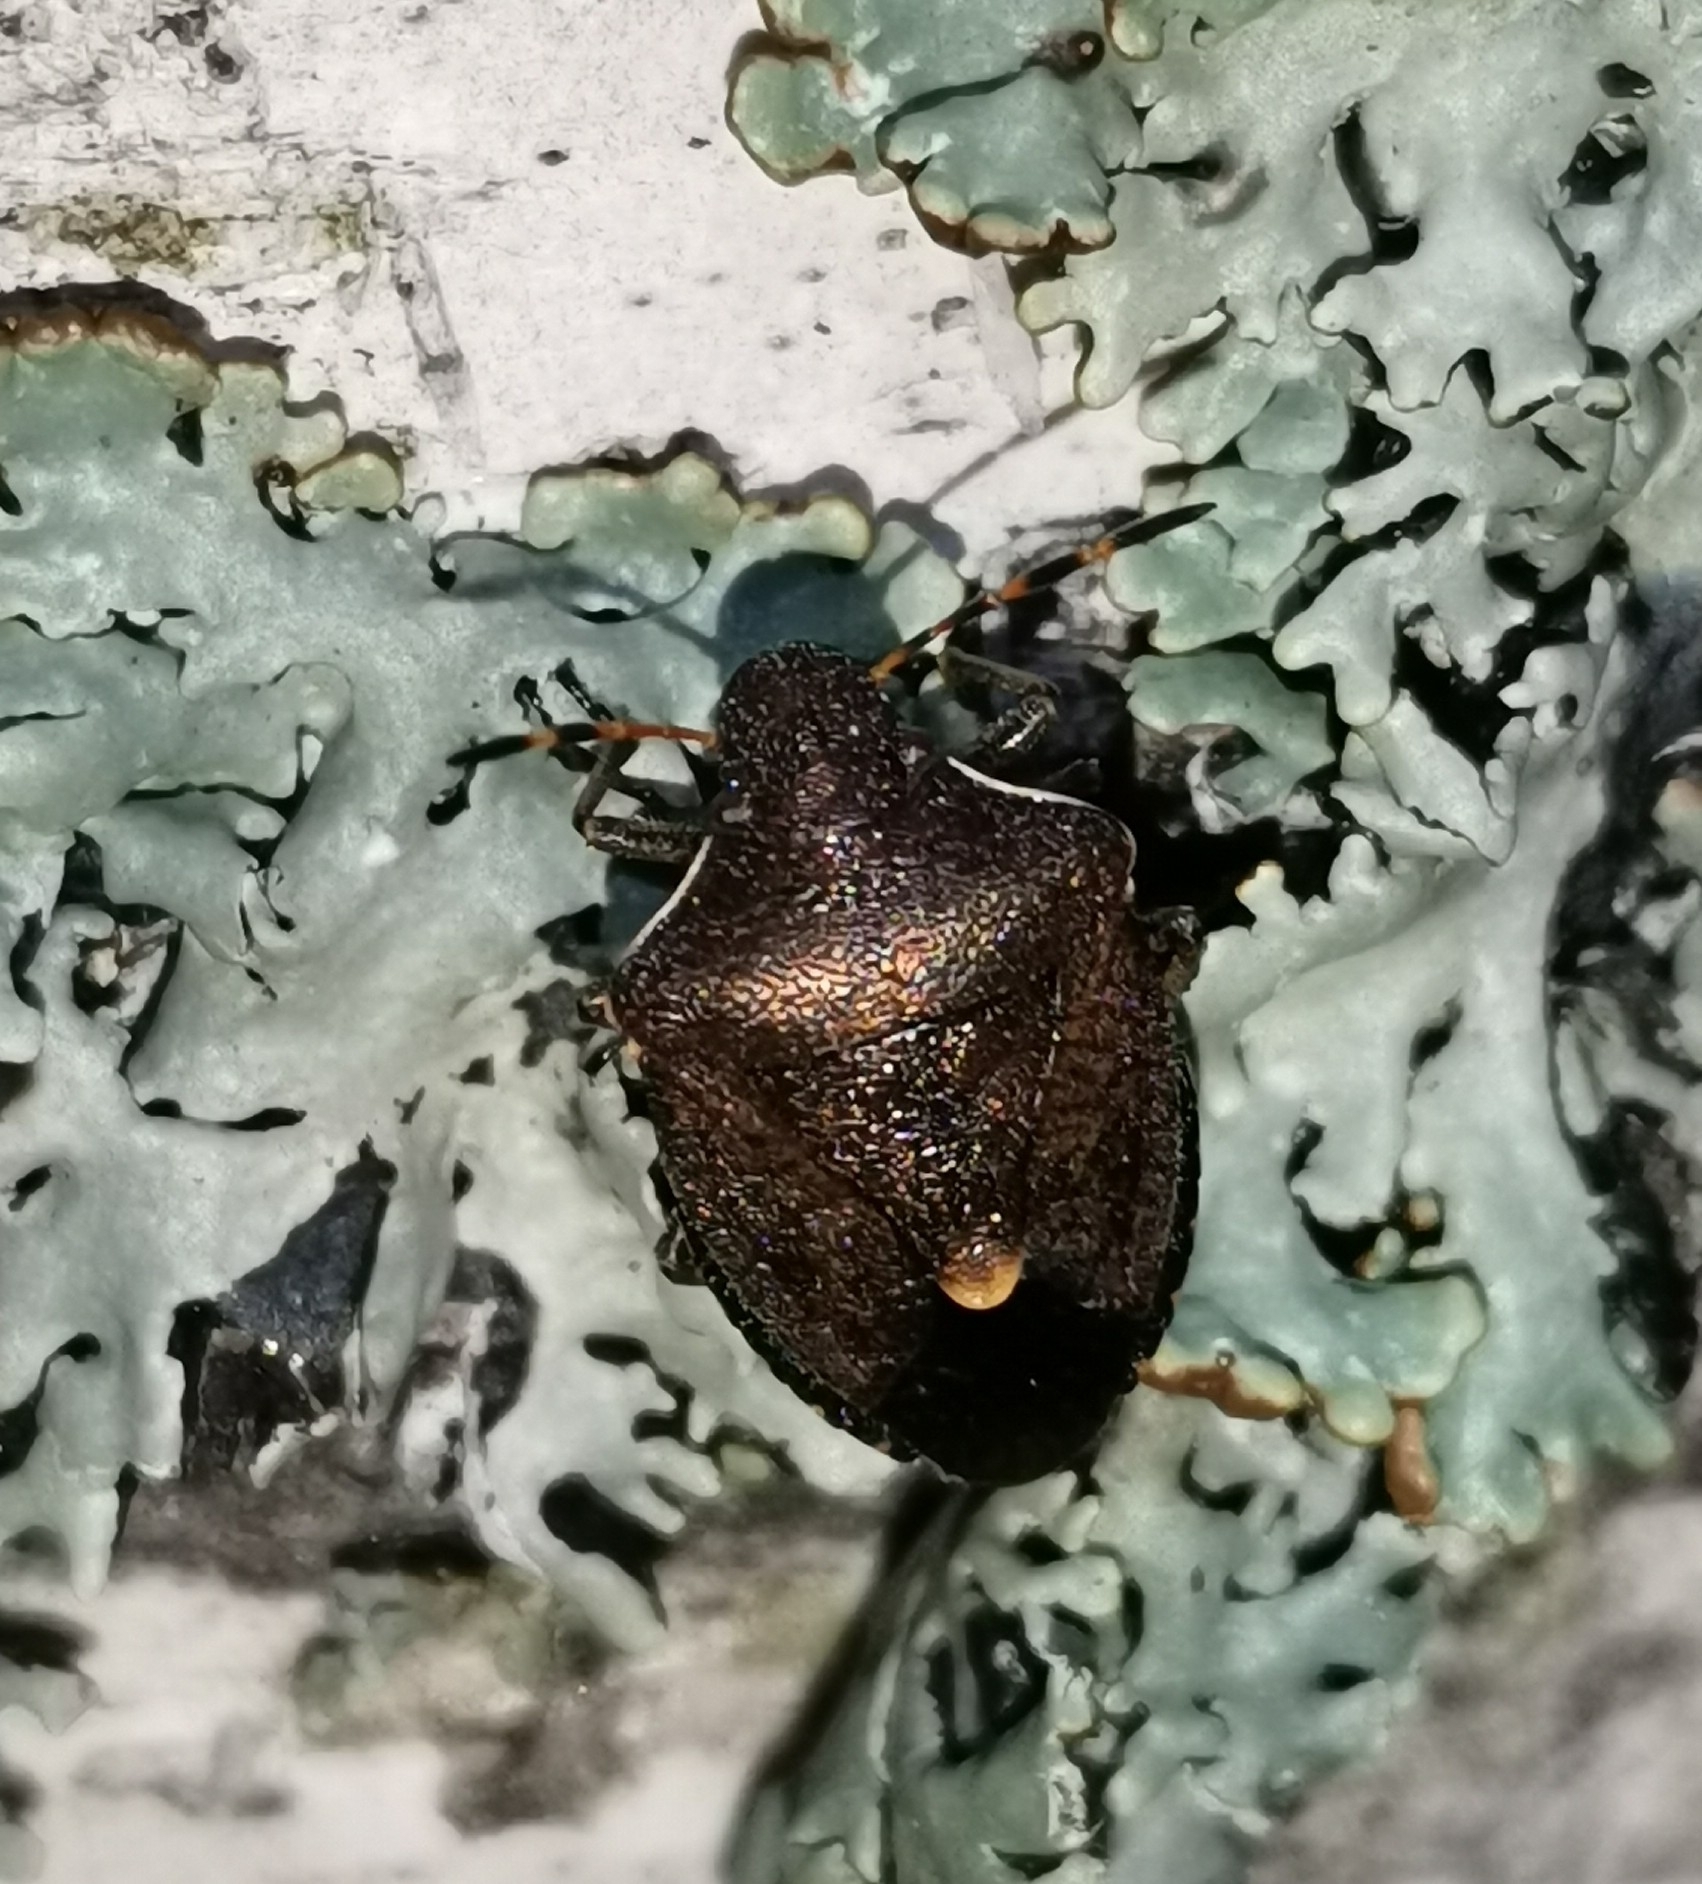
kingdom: Animalia
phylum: Arthropoda
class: Insecta
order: Hemiptera
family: Pentatomidae
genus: Holcostethus
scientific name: Holcostethus strictus
